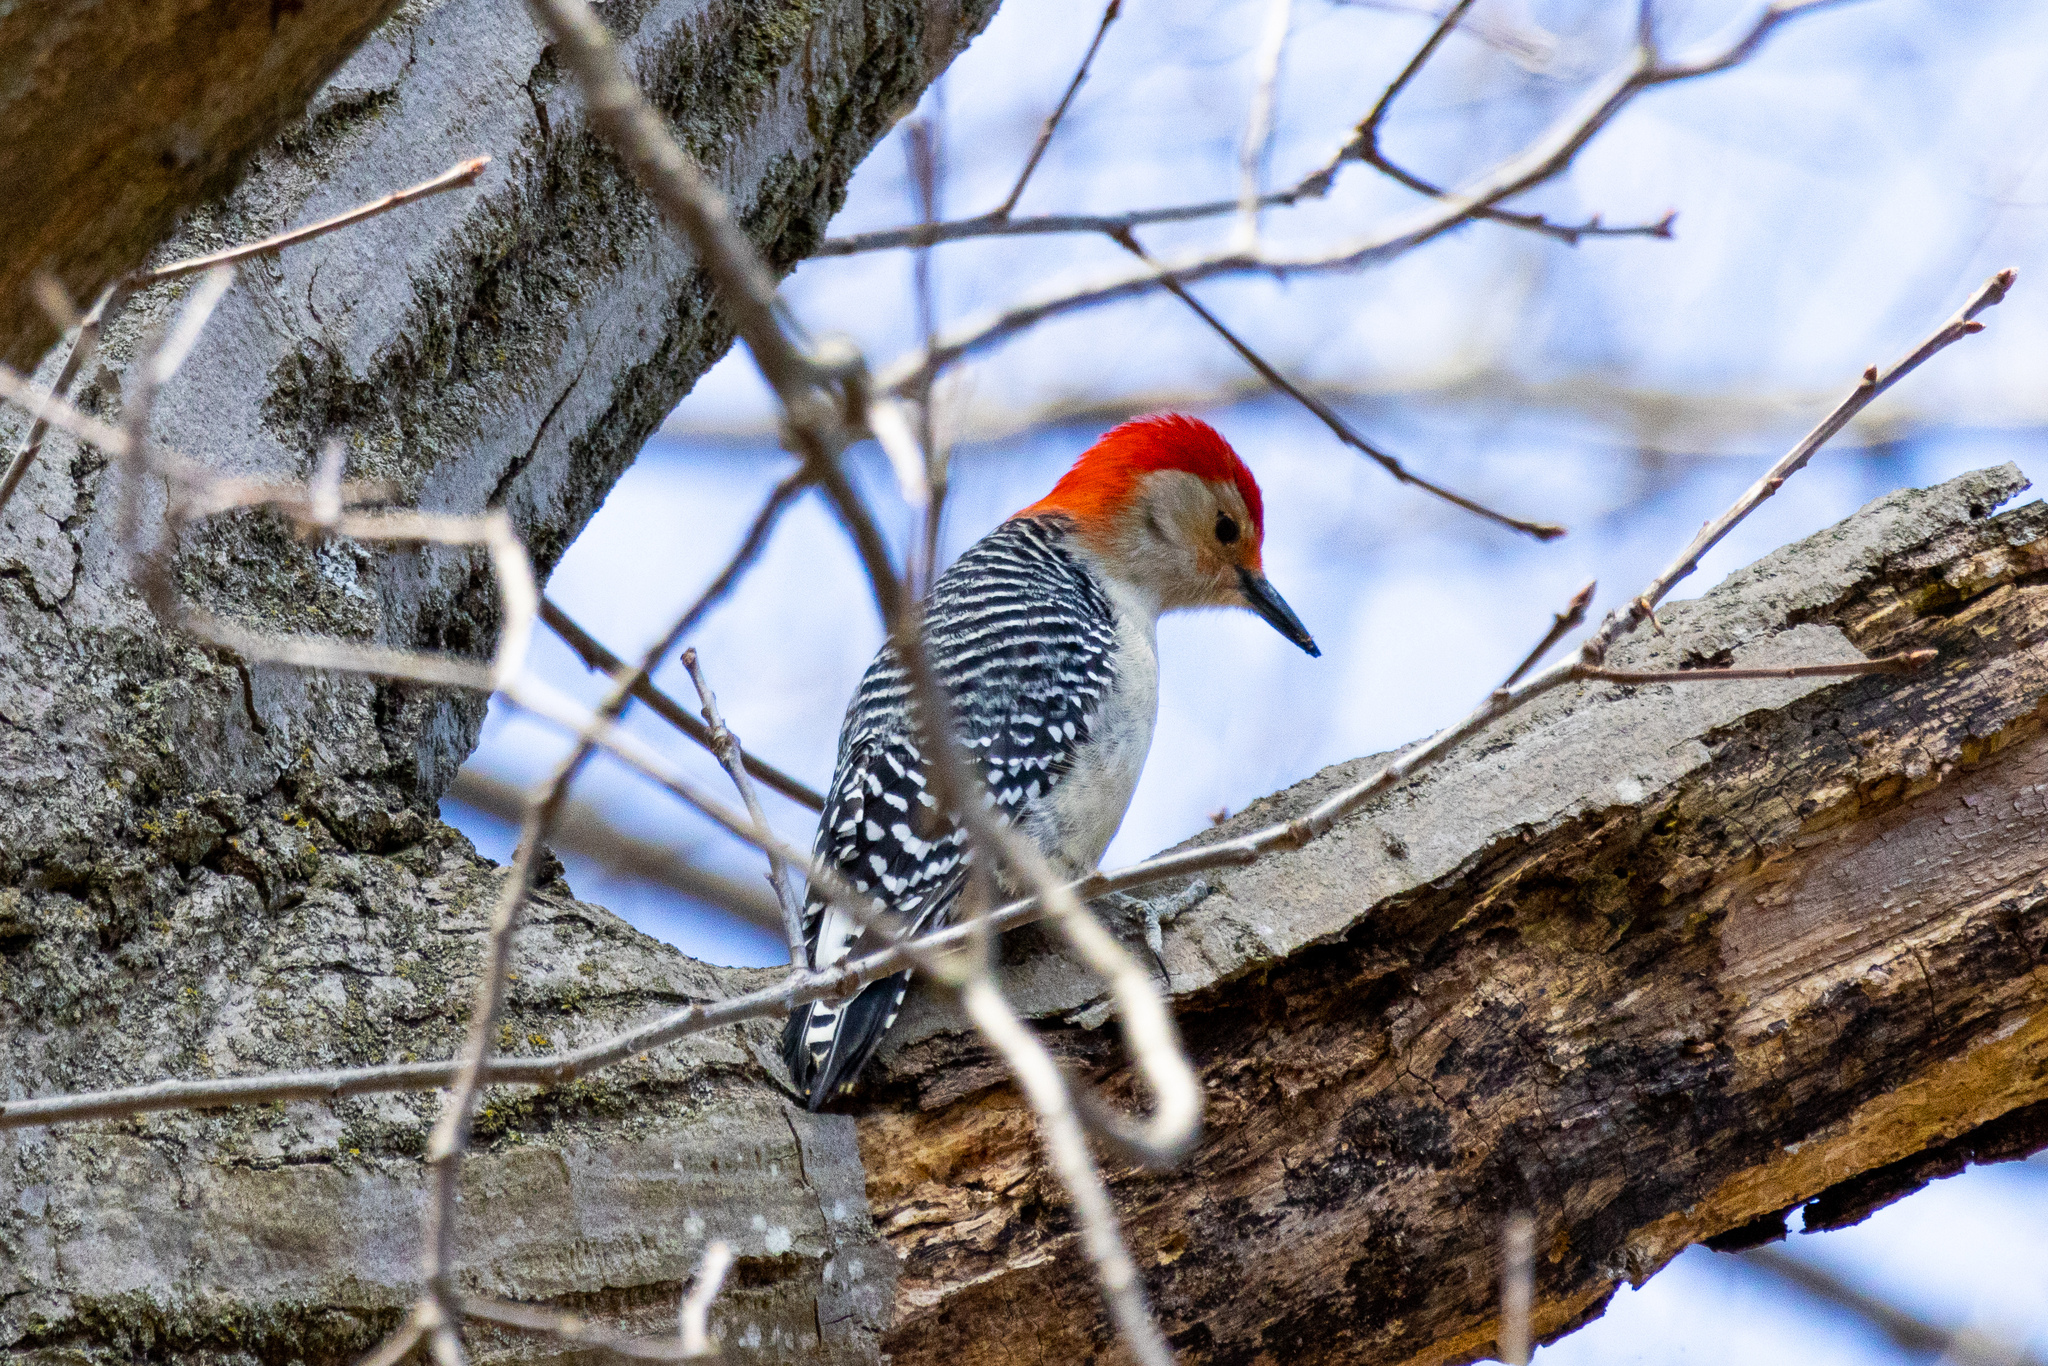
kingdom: Animalia
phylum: Chordata
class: Aves
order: Piciformes
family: Picidae
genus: Melanerpes
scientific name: Melanerpes carolinus
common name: Red-bellied woodpecker
